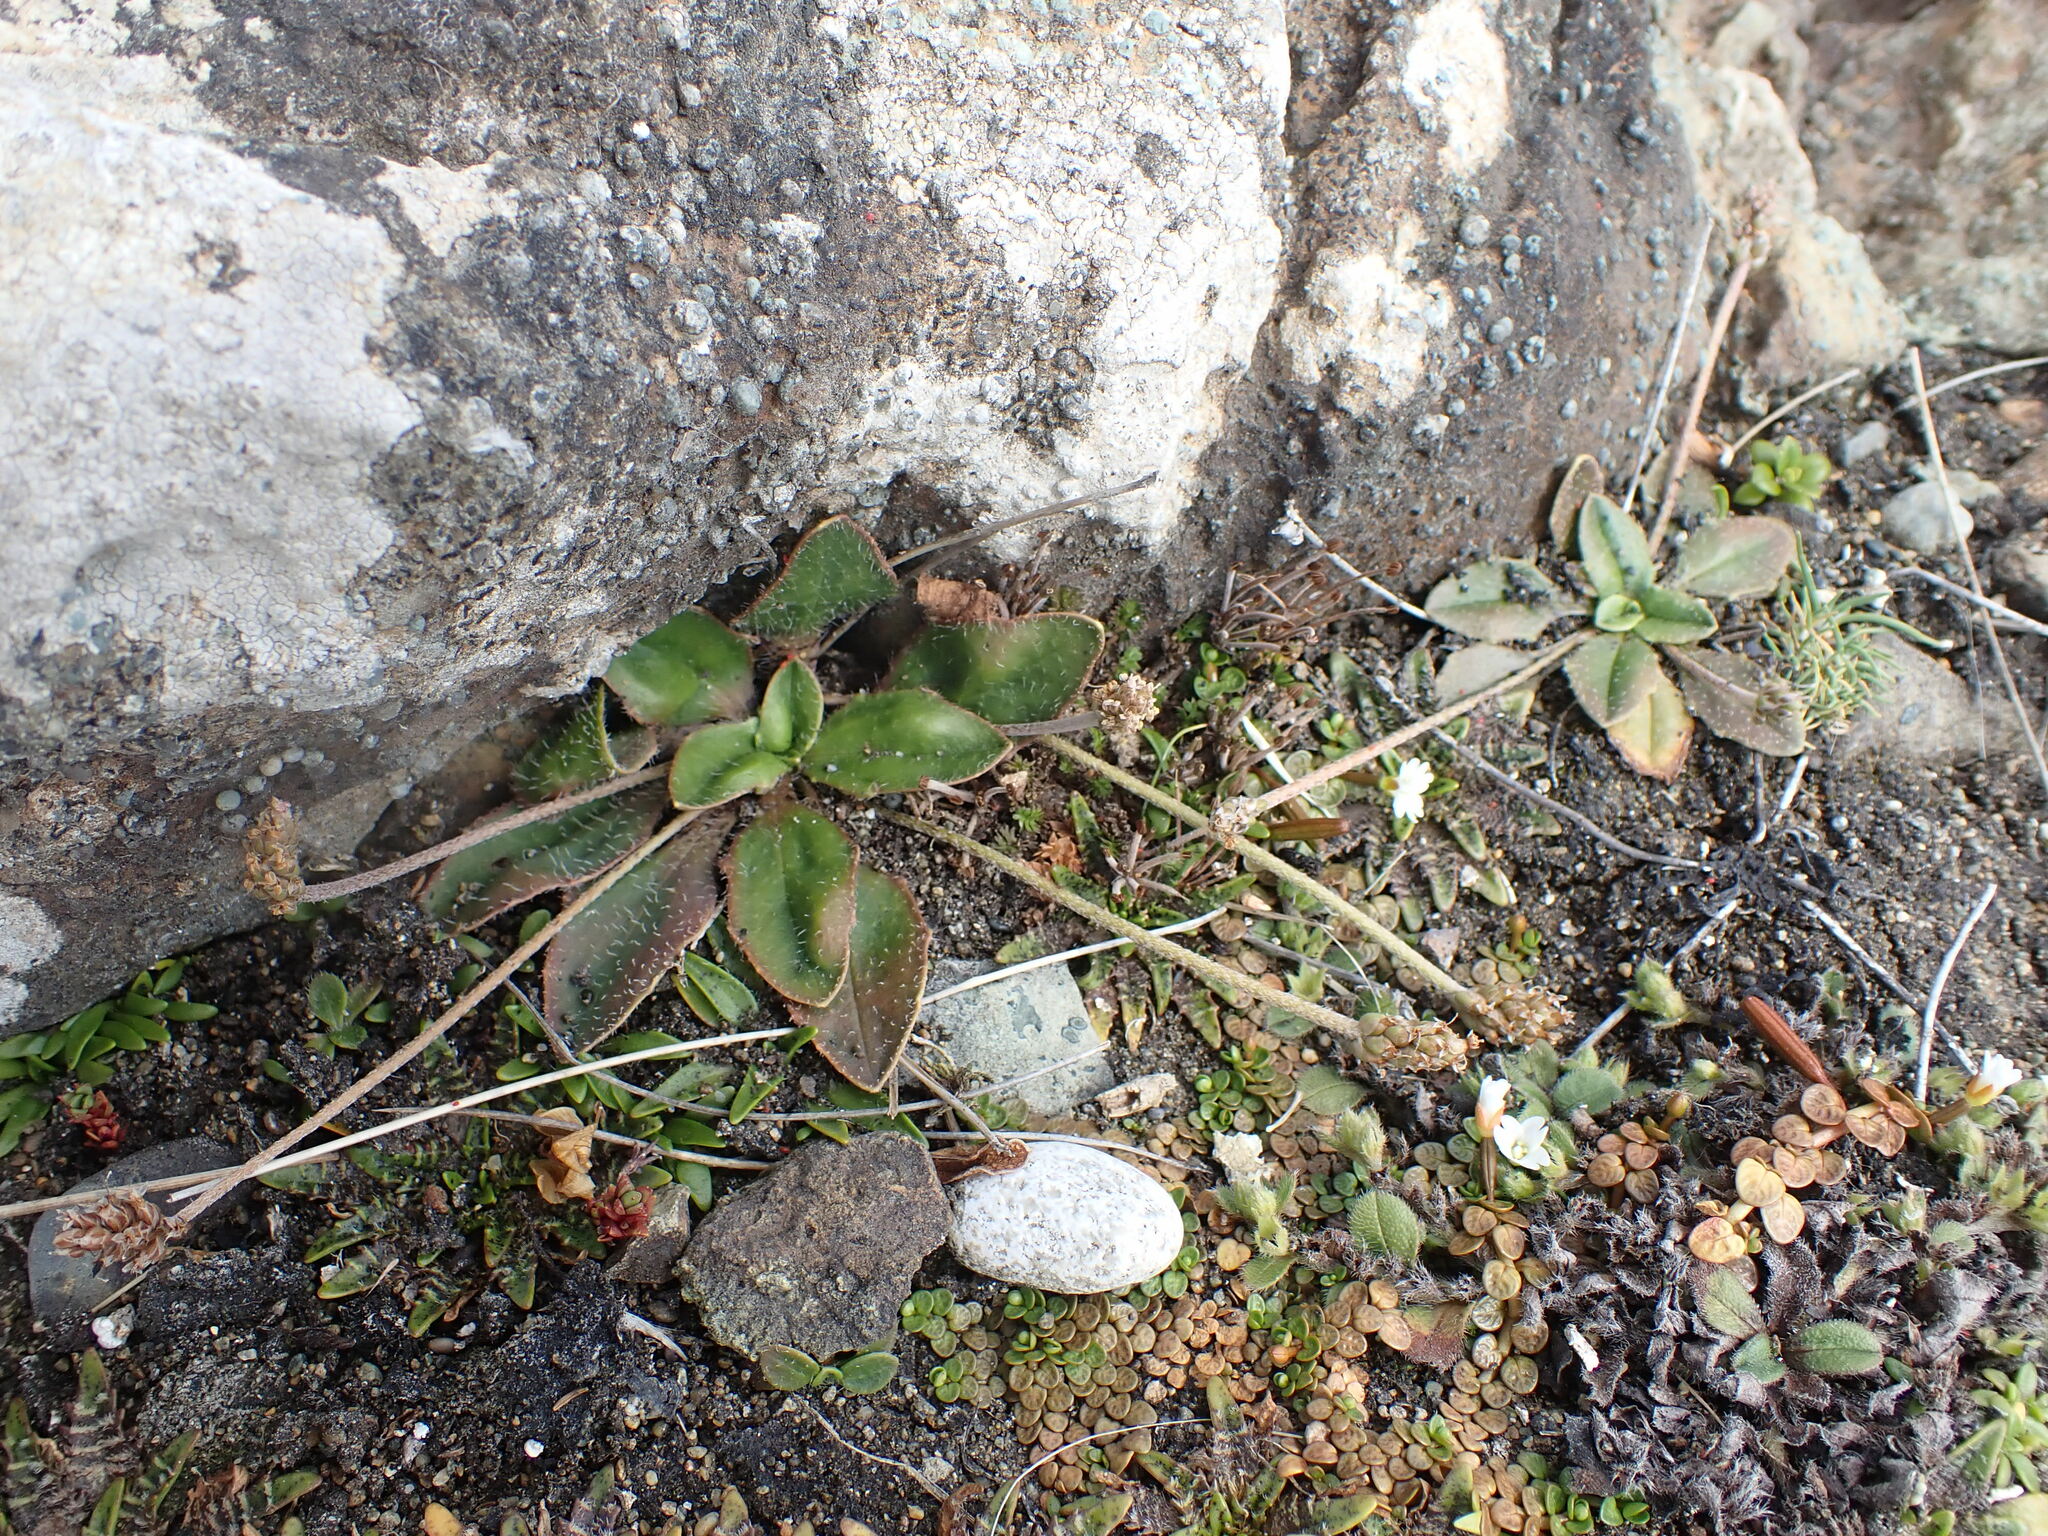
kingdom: Plantae
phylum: Tracheophyta
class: Magnoliopsida
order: Lamiales
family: Plantaginaceae
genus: Plantago
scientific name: Plantago raoulii
